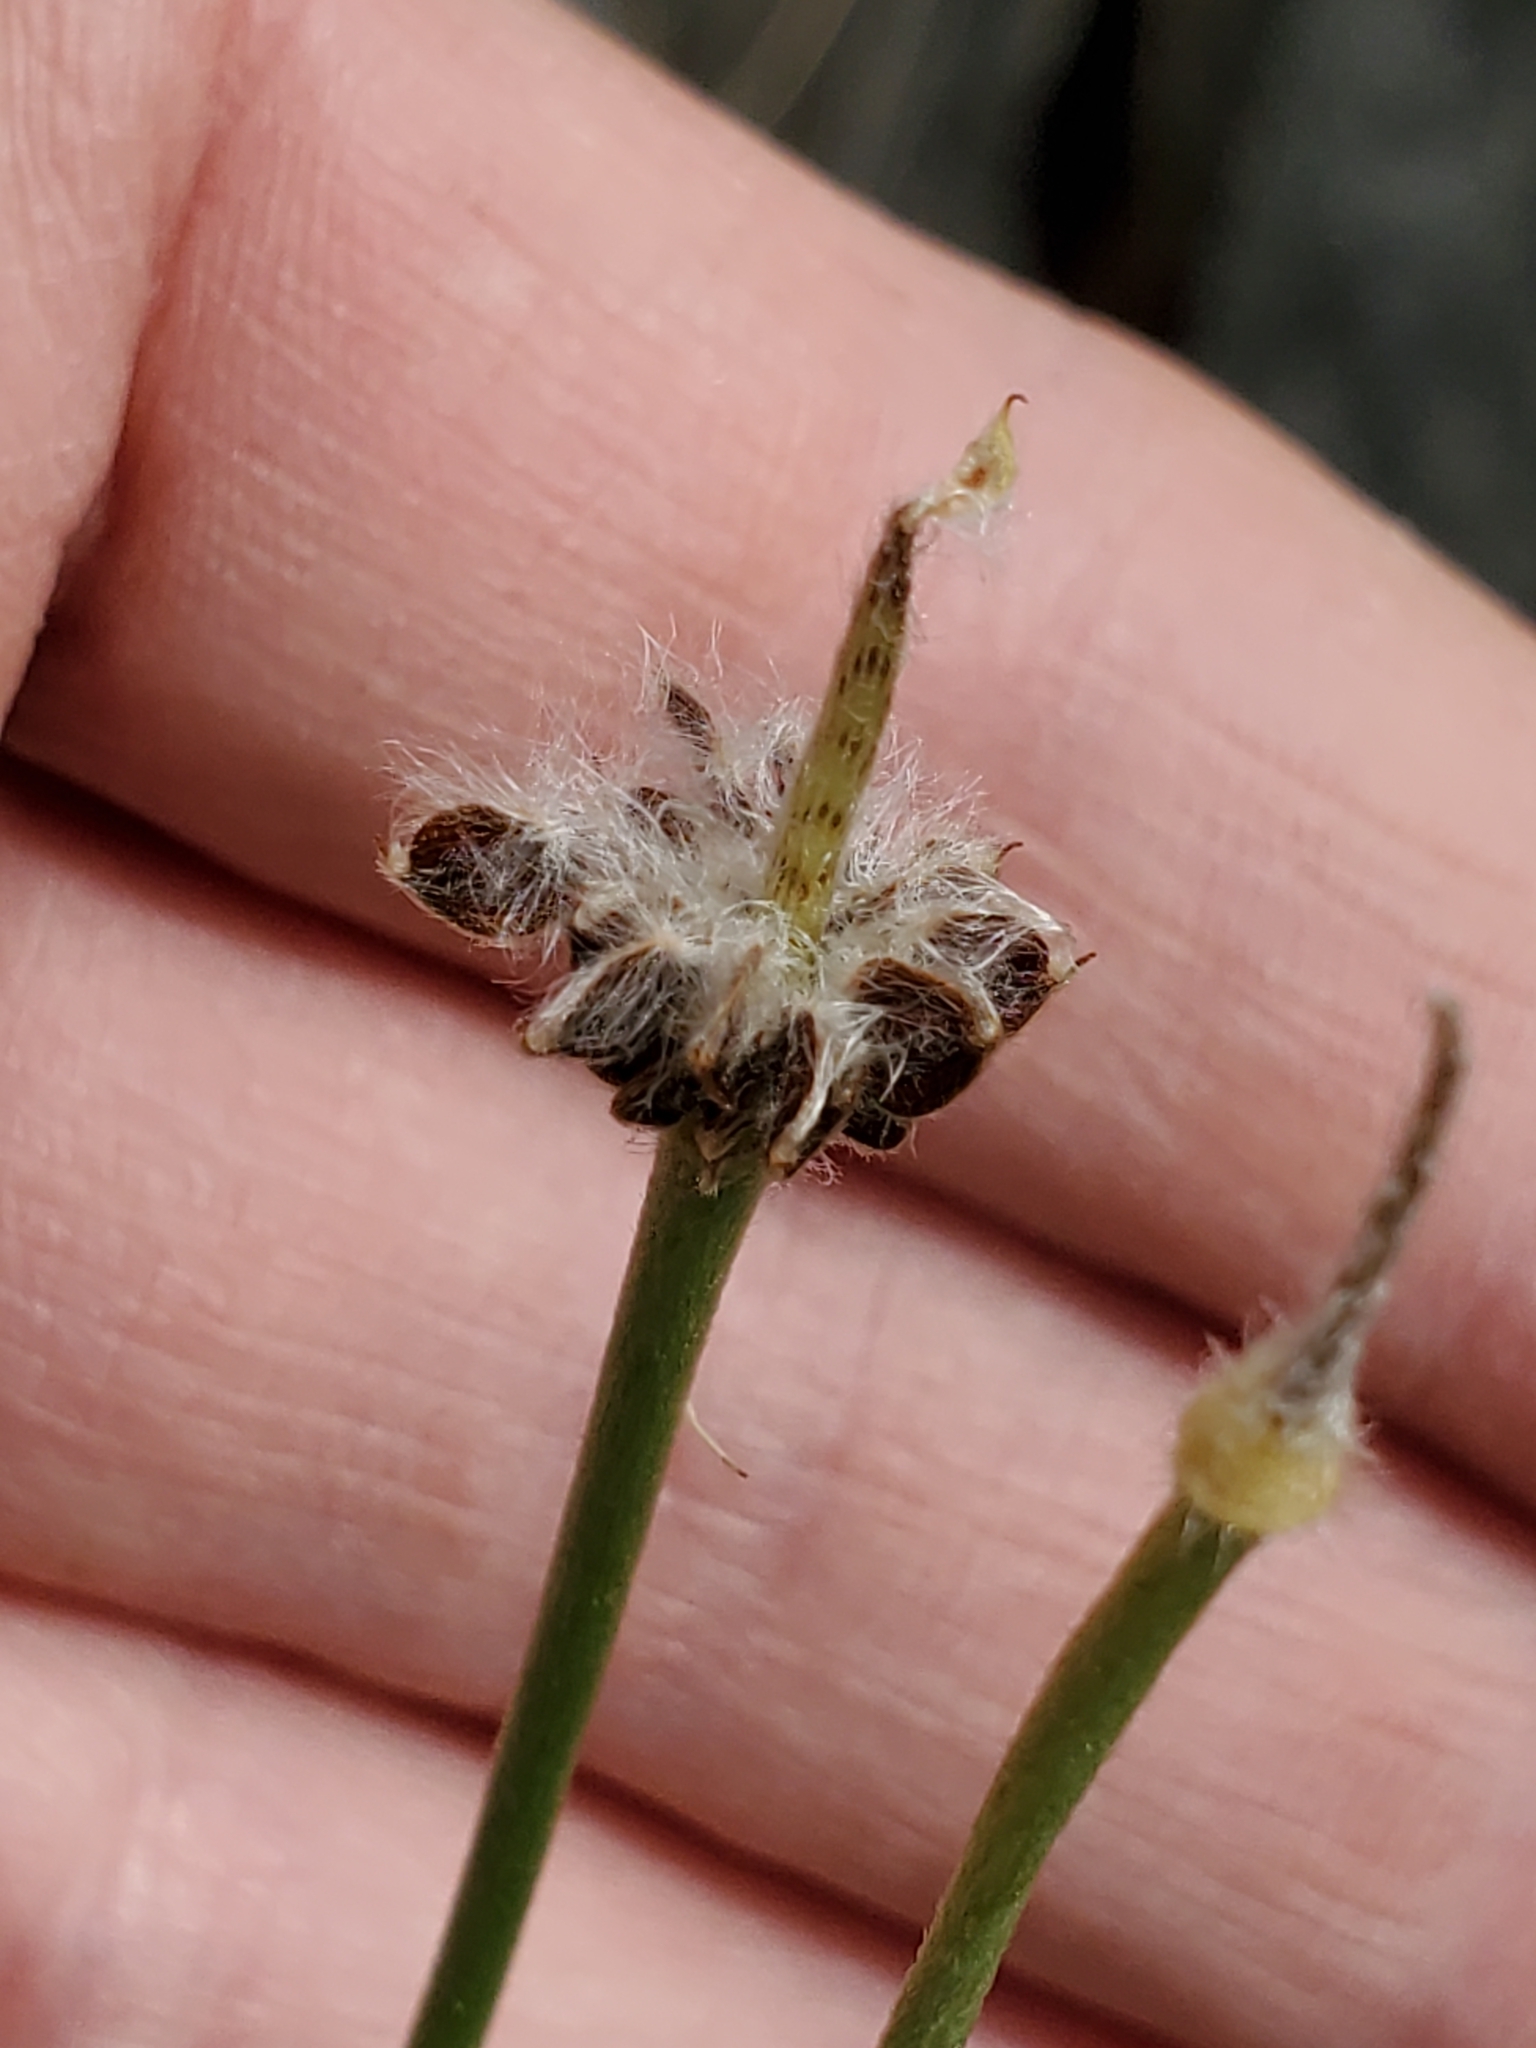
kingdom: Plantae
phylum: Tracheophyta
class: Magnoliopsida
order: Ranunculales
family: Ranunculaceae
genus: Anemone
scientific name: Anemone edwardsiana
